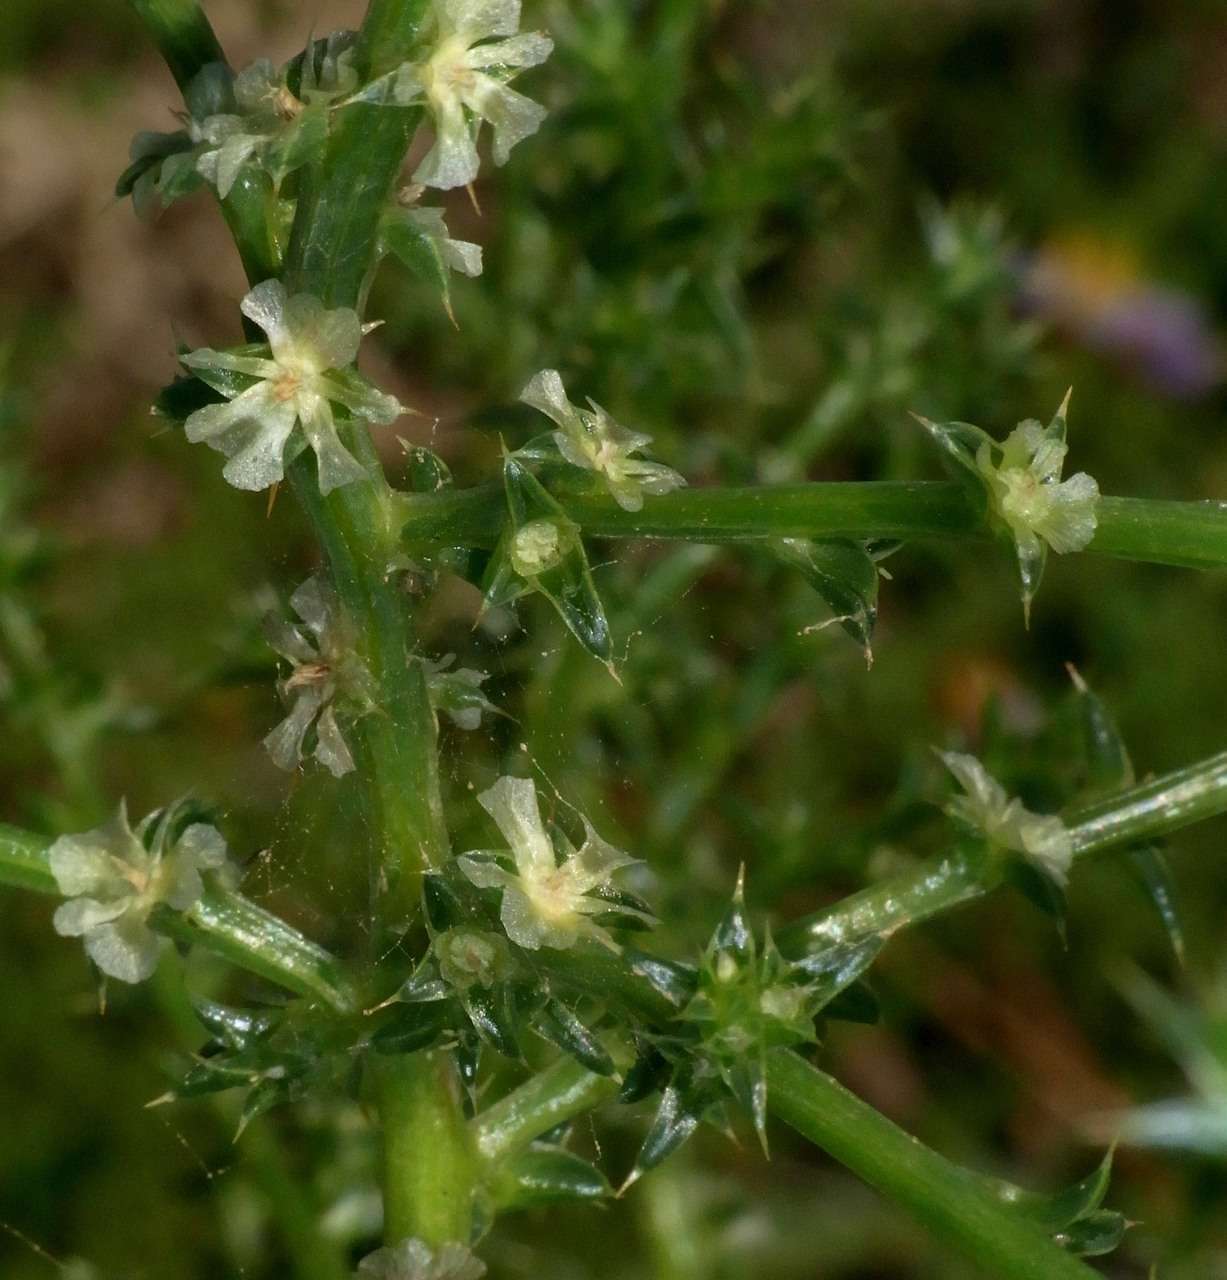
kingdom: Plantae
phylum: Tracheophyta
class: Magnoliopsida
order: Caryophyllales
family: Amaranthaceae
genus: Salsola
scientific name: Salsola australis
